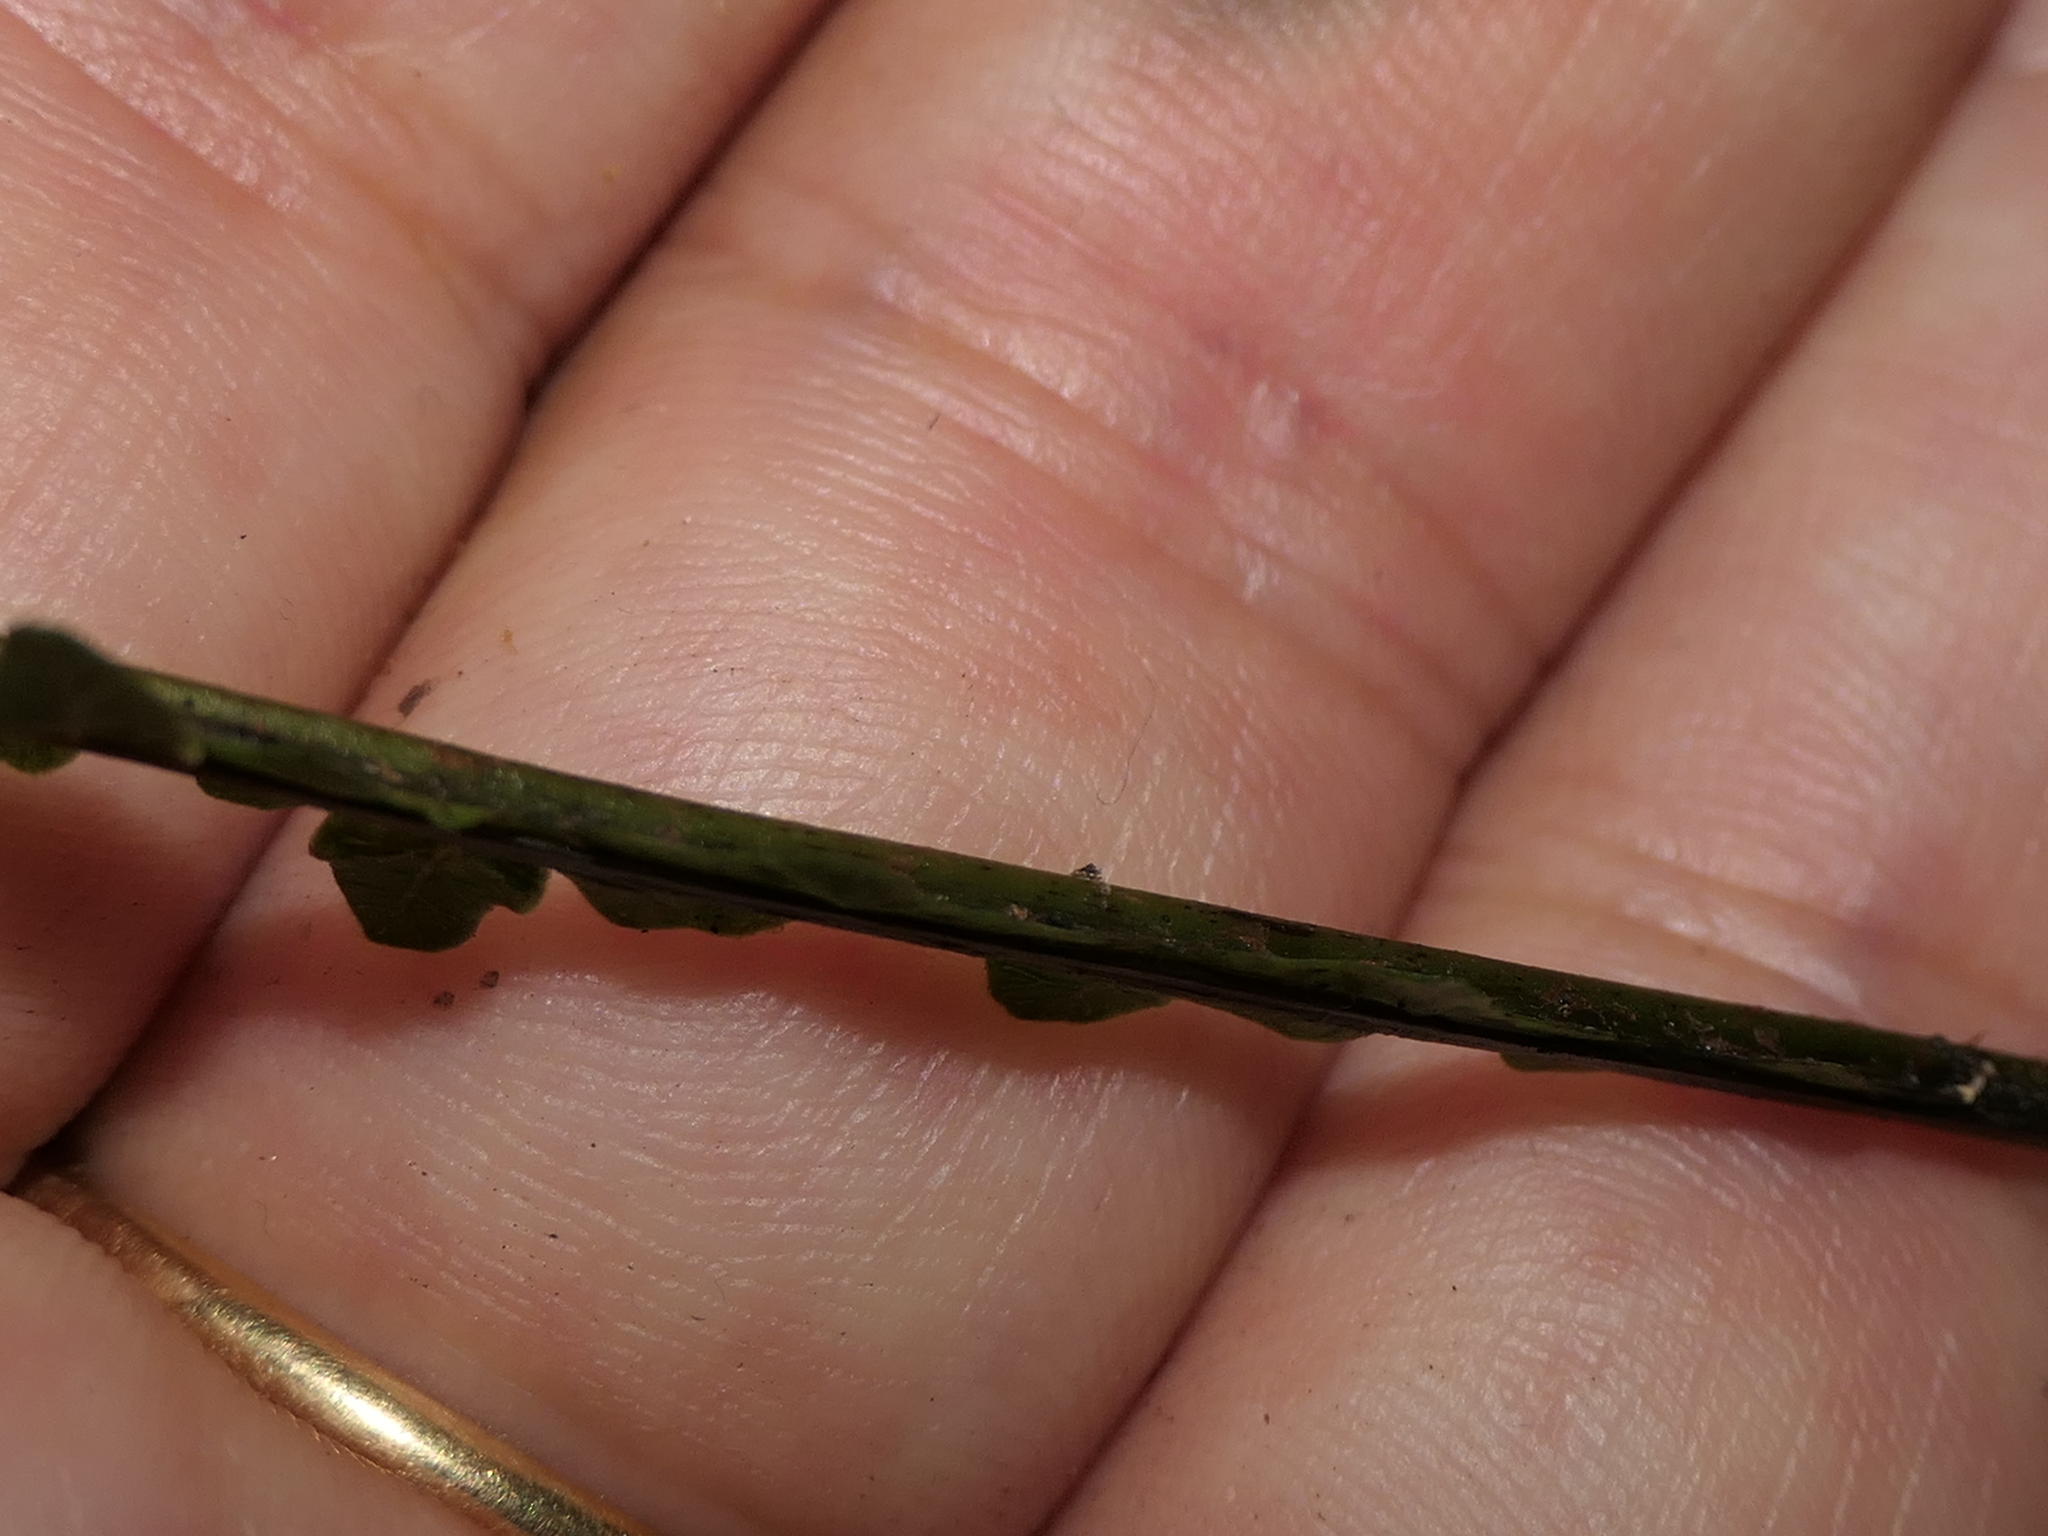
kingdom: Plantae
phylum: Tracheophyta
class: Polypodiopsida
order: Polypodiales
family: Blechnaceae
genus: Diploblechnum
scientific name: Diploblechnum fraseri
